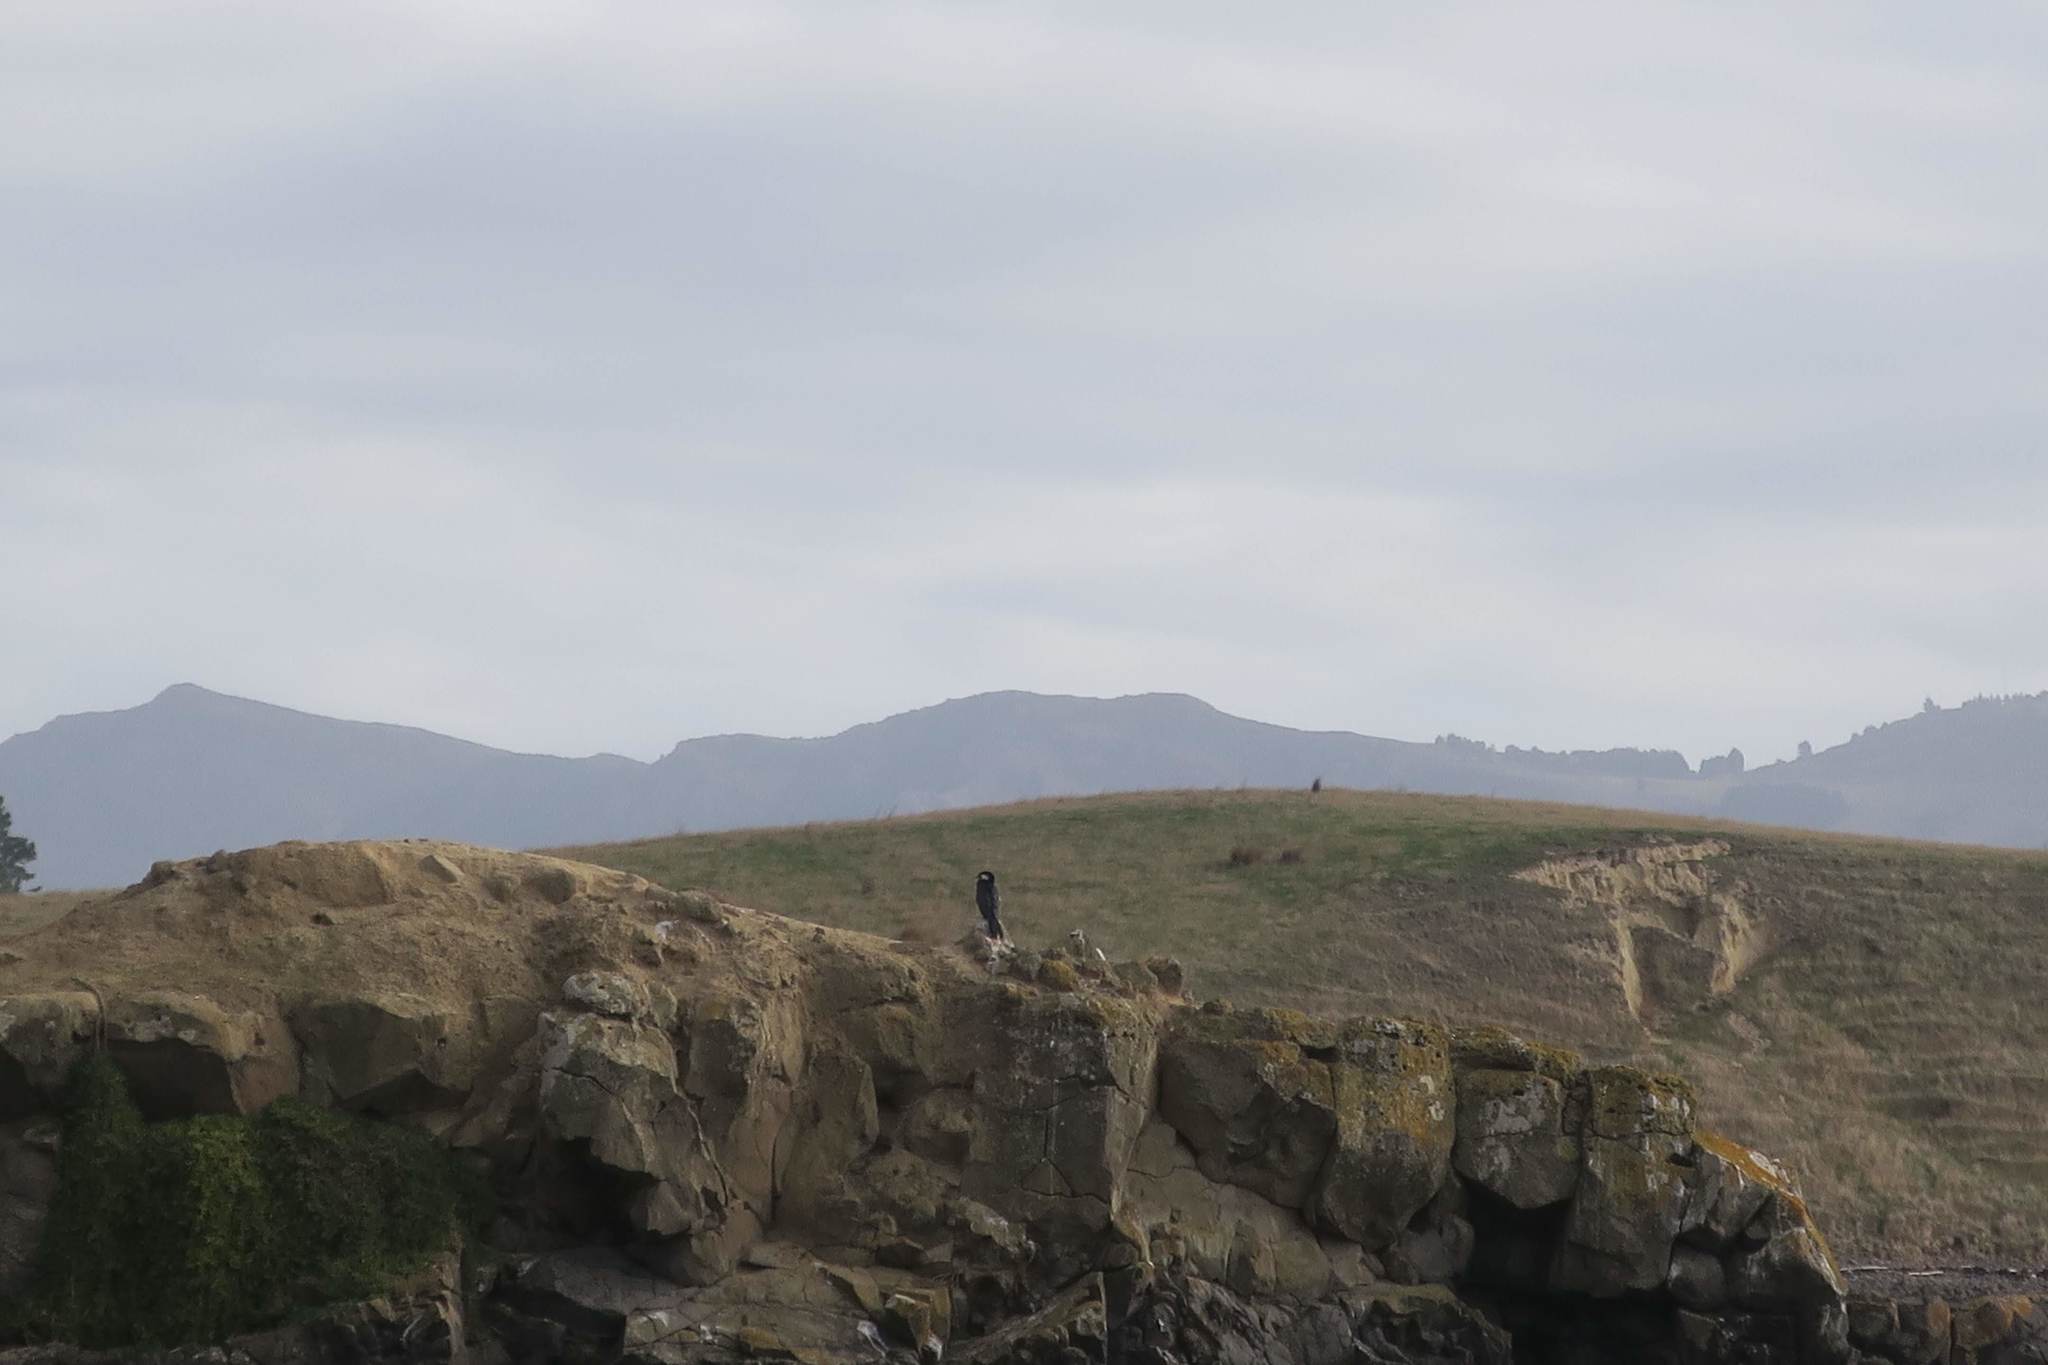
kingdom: Animalia
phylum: Chordata
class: Aves
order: Suliformes
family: Phalacrocoracidae
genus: Phalacrocorax
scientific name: Phalacrocorax varius
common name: Pied cormorant
